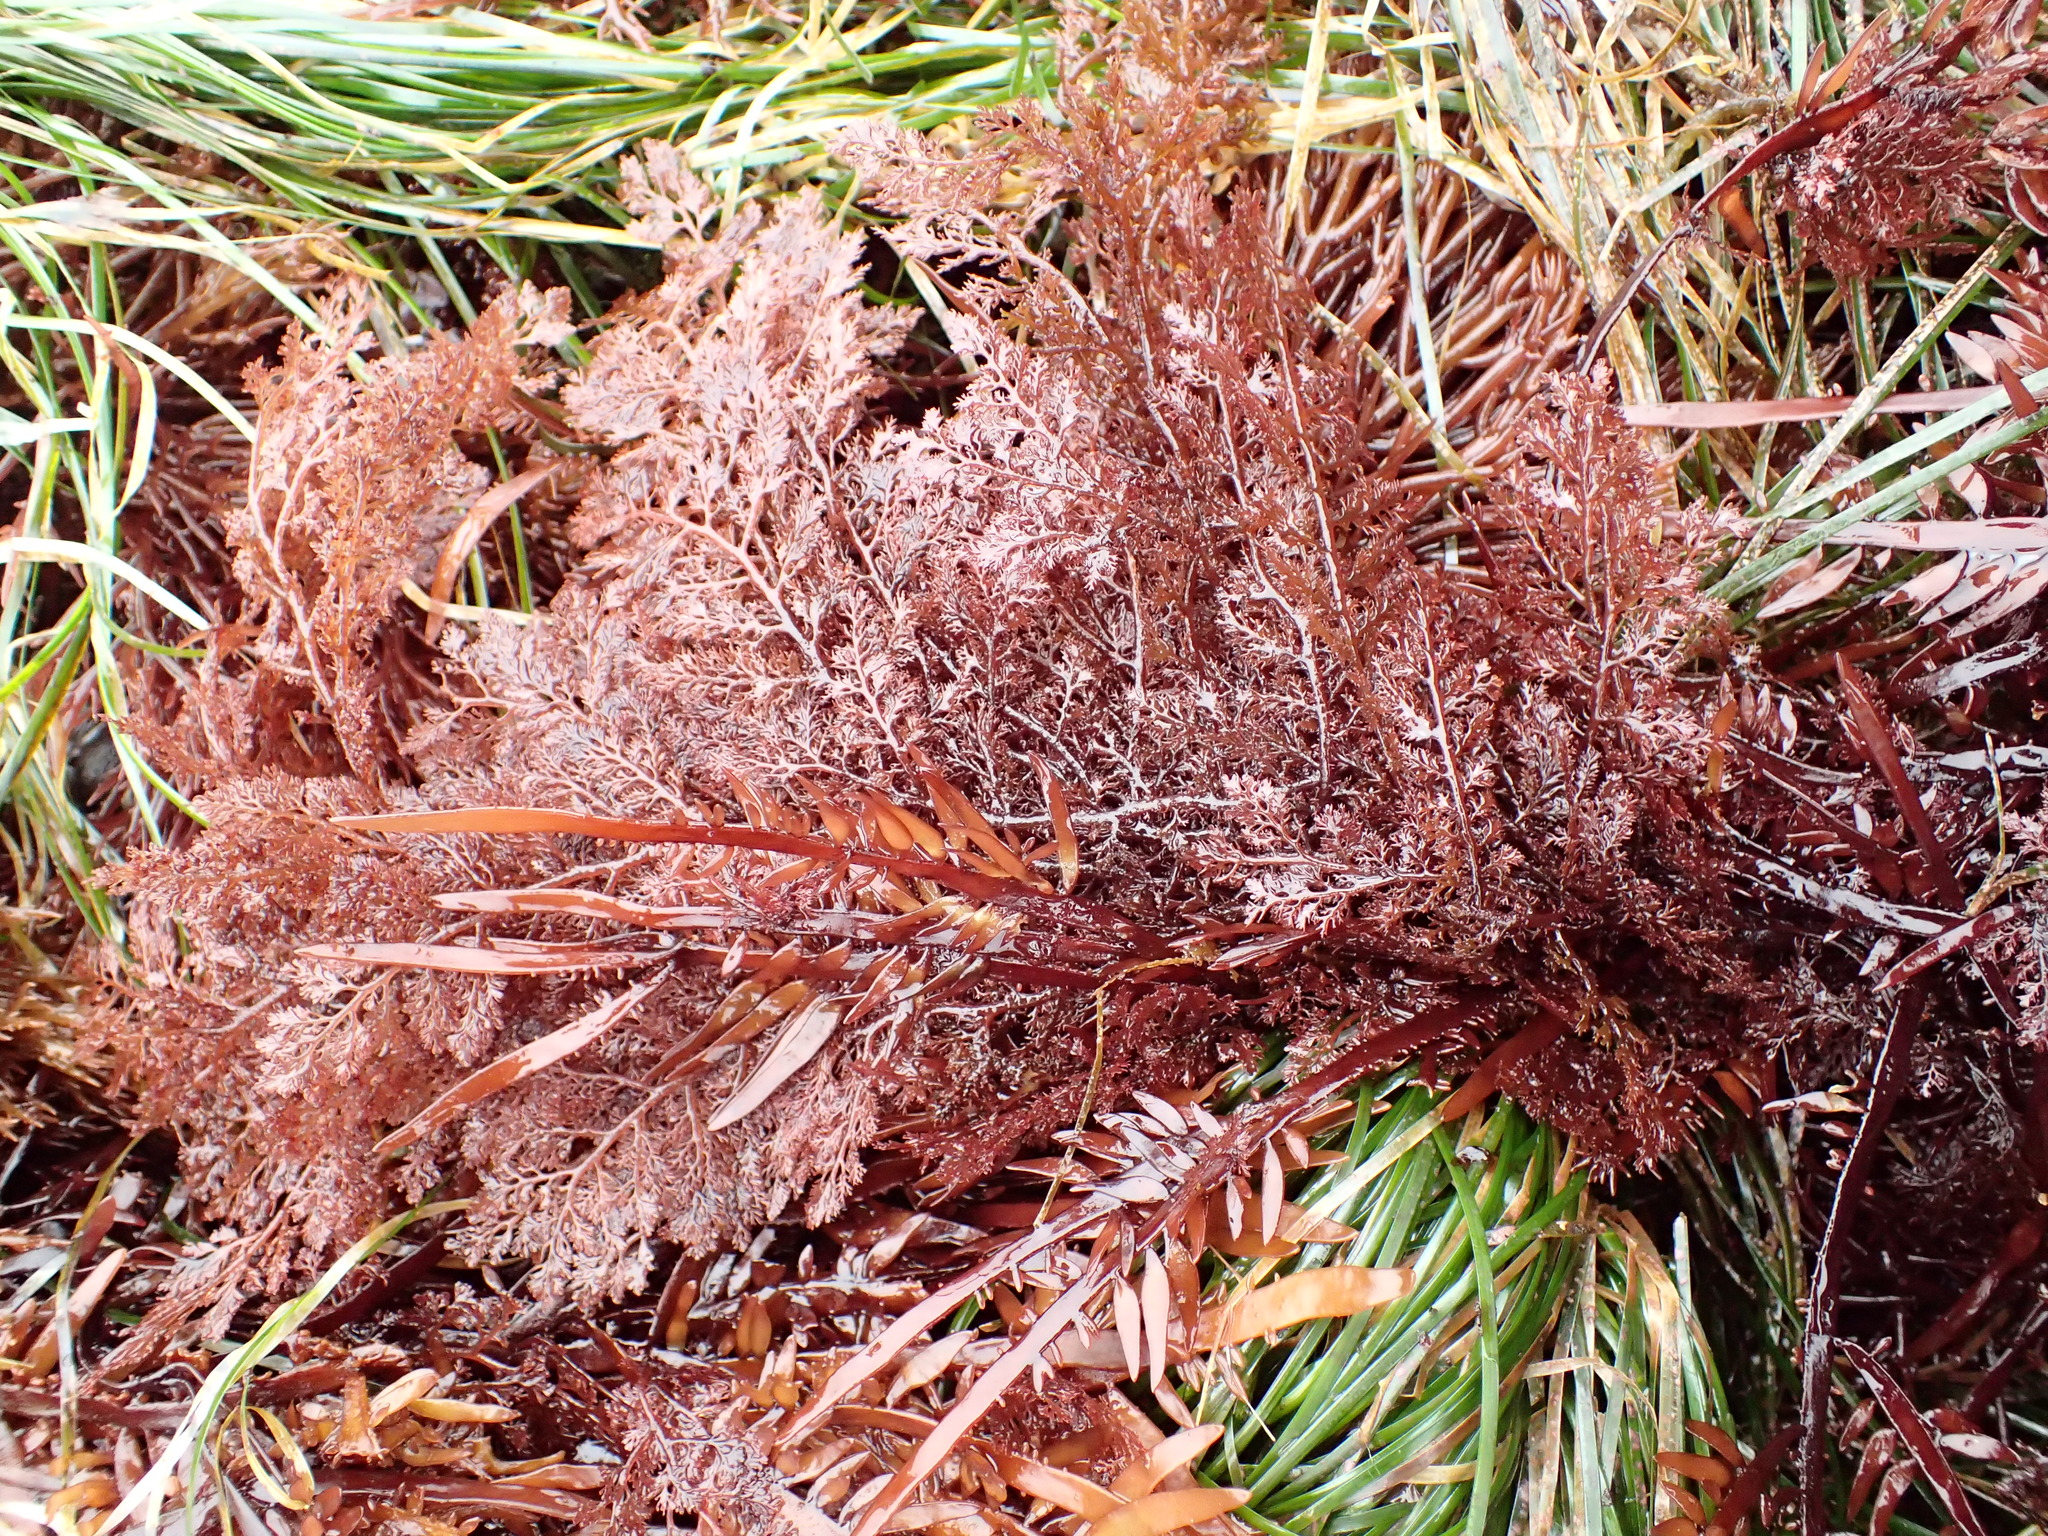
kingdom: Plantae
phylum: Rhodophyta
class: Florideophyceae
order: Ceramiales
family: Ceramiaceae
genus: Microcladia
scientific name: Microcladia coulteri
